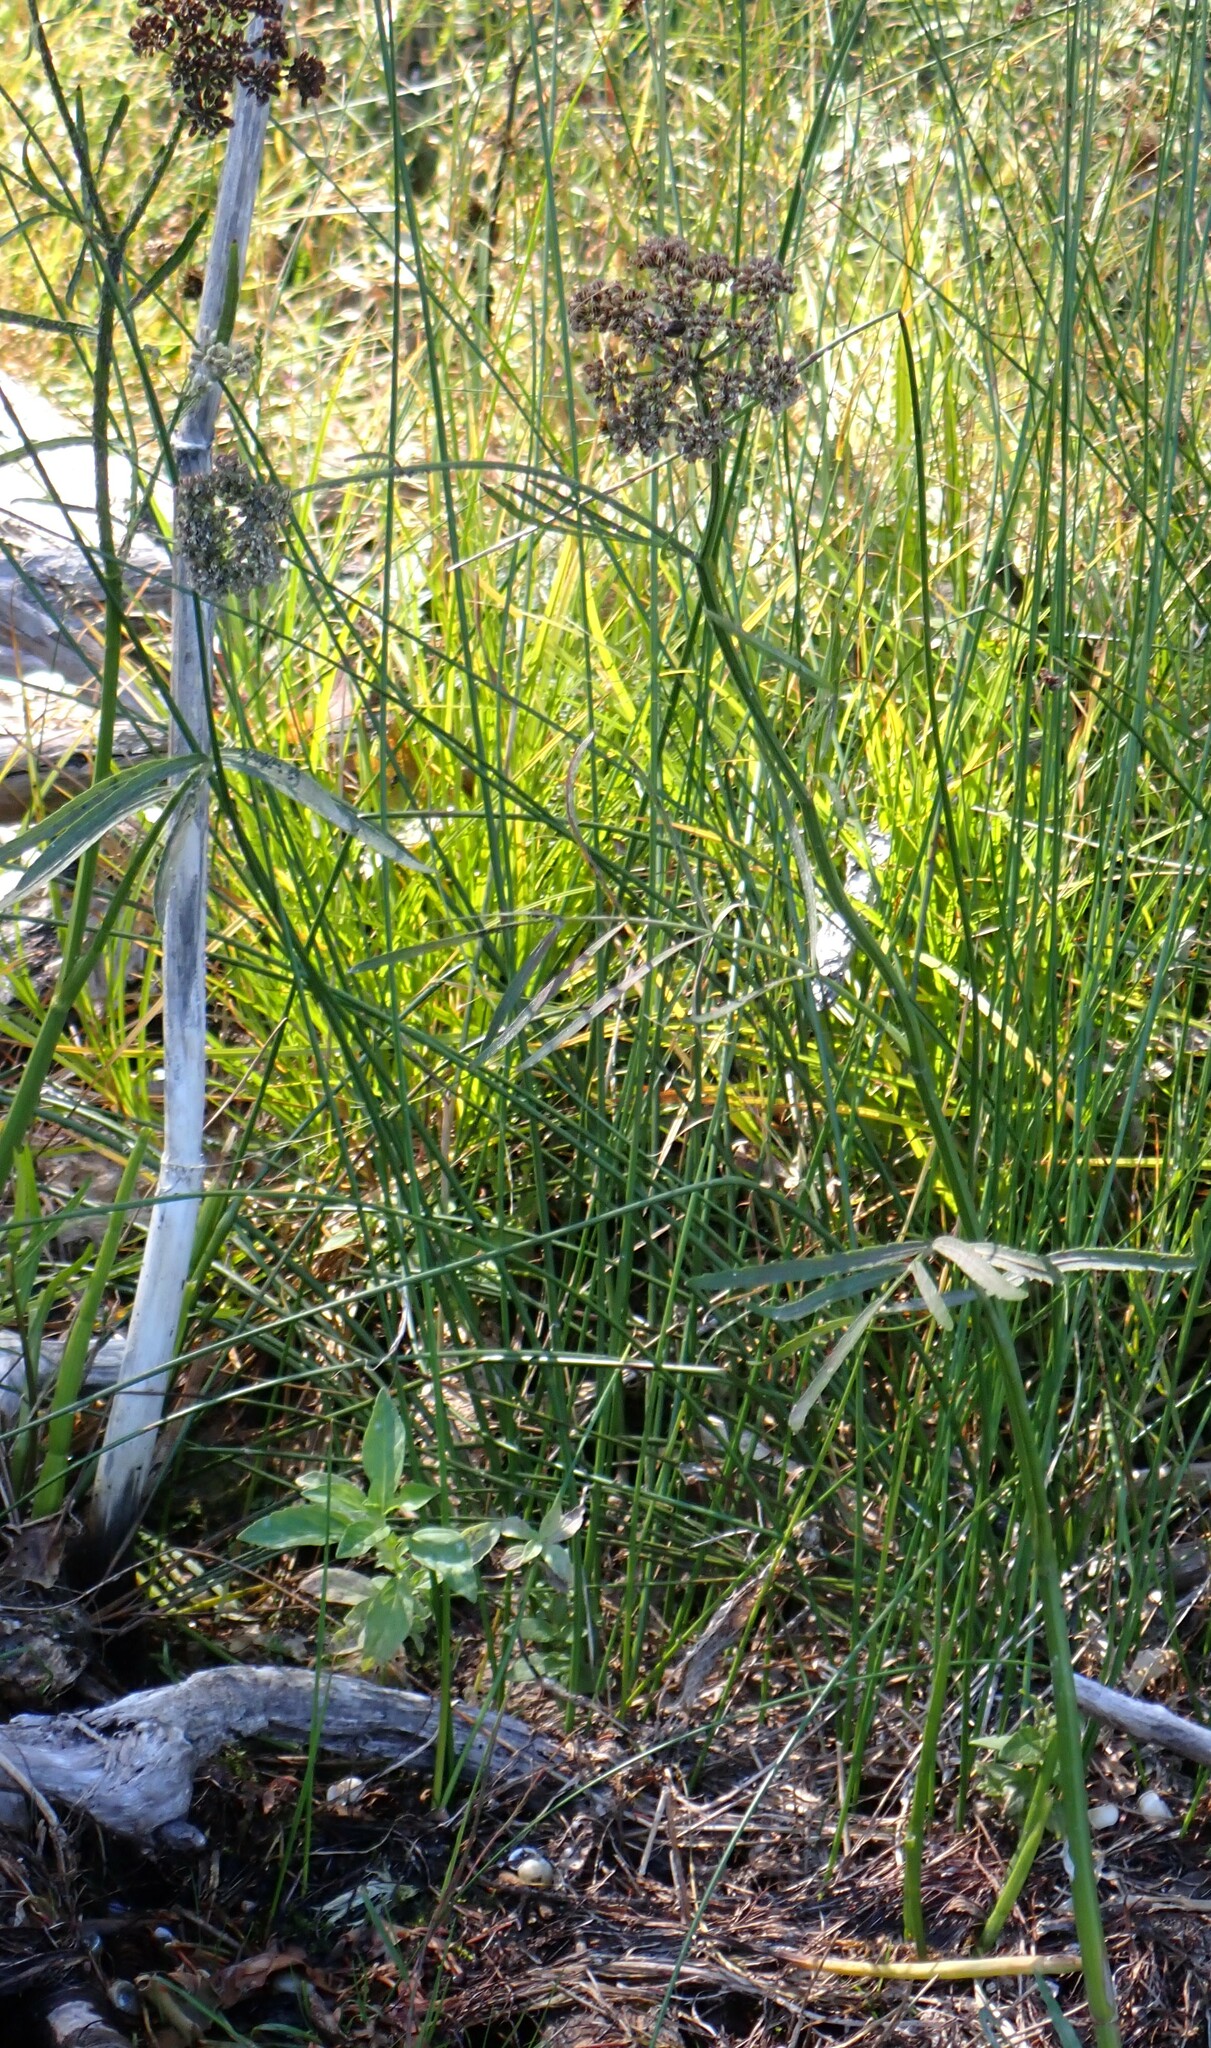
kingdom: Plantae
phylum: Tracheophyta
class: Magnoliopsida
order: Apiales
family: Apiaceae
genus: Sium
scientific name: Sium suave
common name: Hemlock water-parsnip
